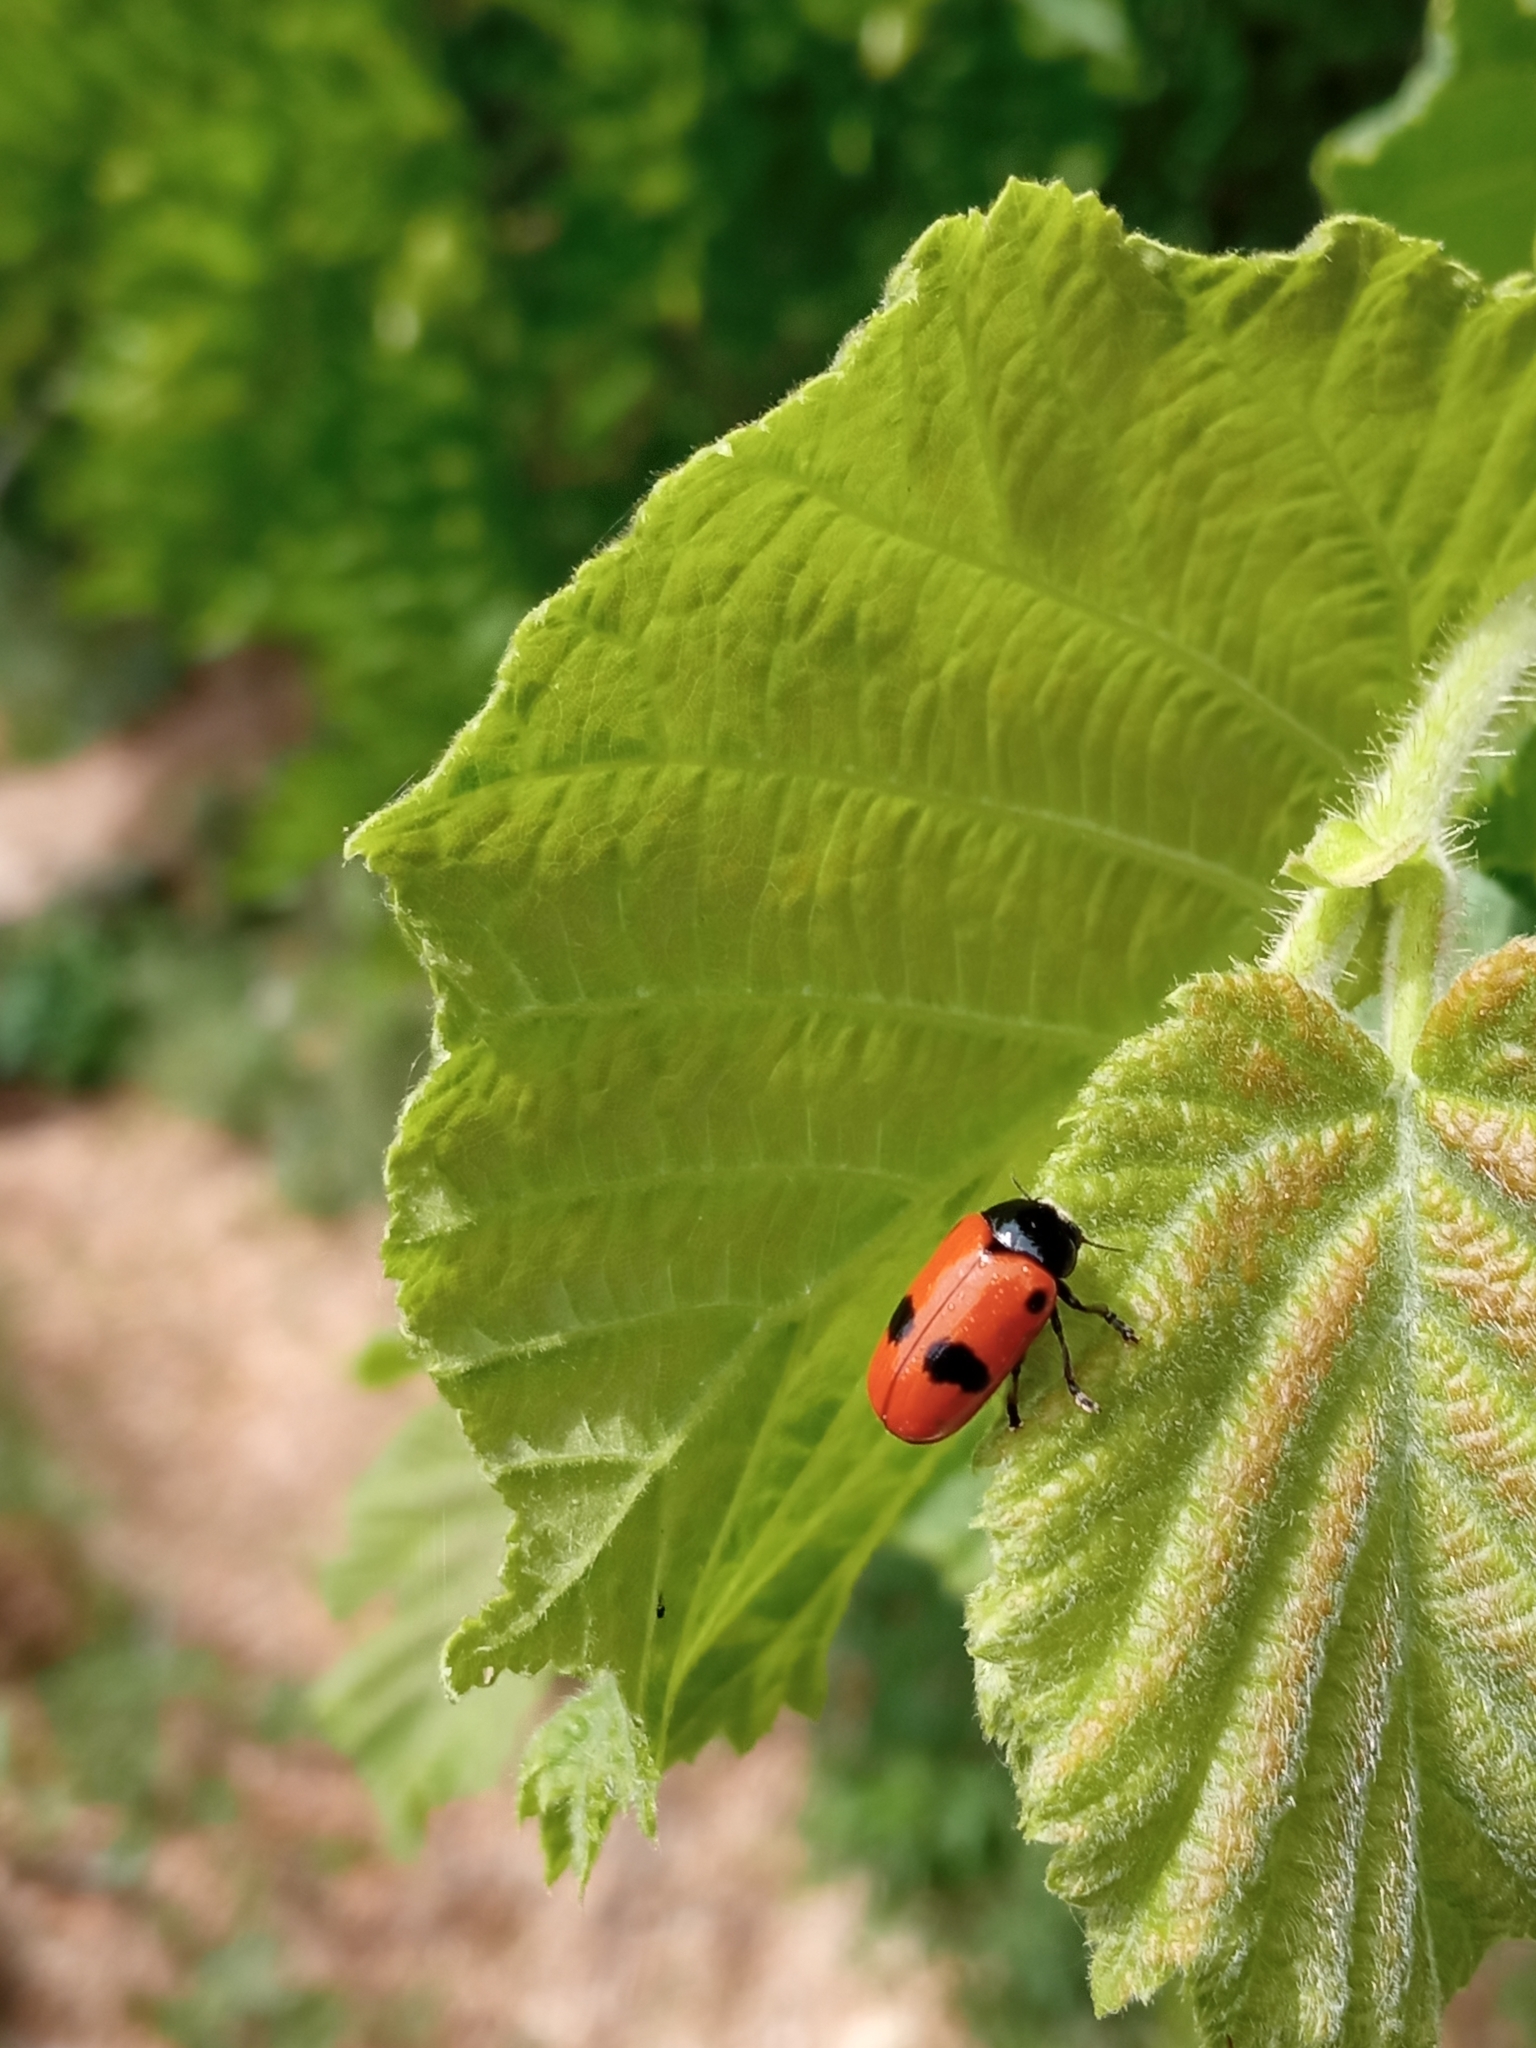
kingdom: Animalia
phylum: Arthropoda
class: Insecta
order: Coleoptera
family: Chrysomelidae
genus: Clytra
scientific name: Clytra laeviuscula
